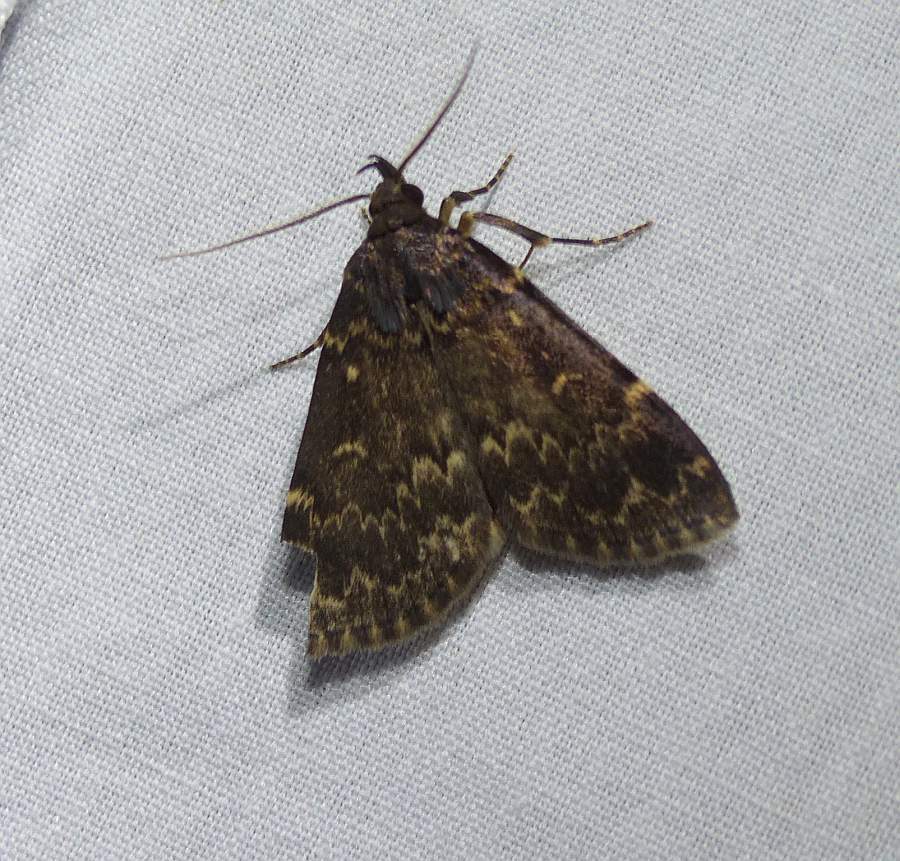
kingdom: Animalia
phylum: Arthropoda
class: Insecta
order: Lepidoptera
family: Erebidae
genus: Idia
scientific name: Idia lubricalis
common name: Twin-striped tabby
